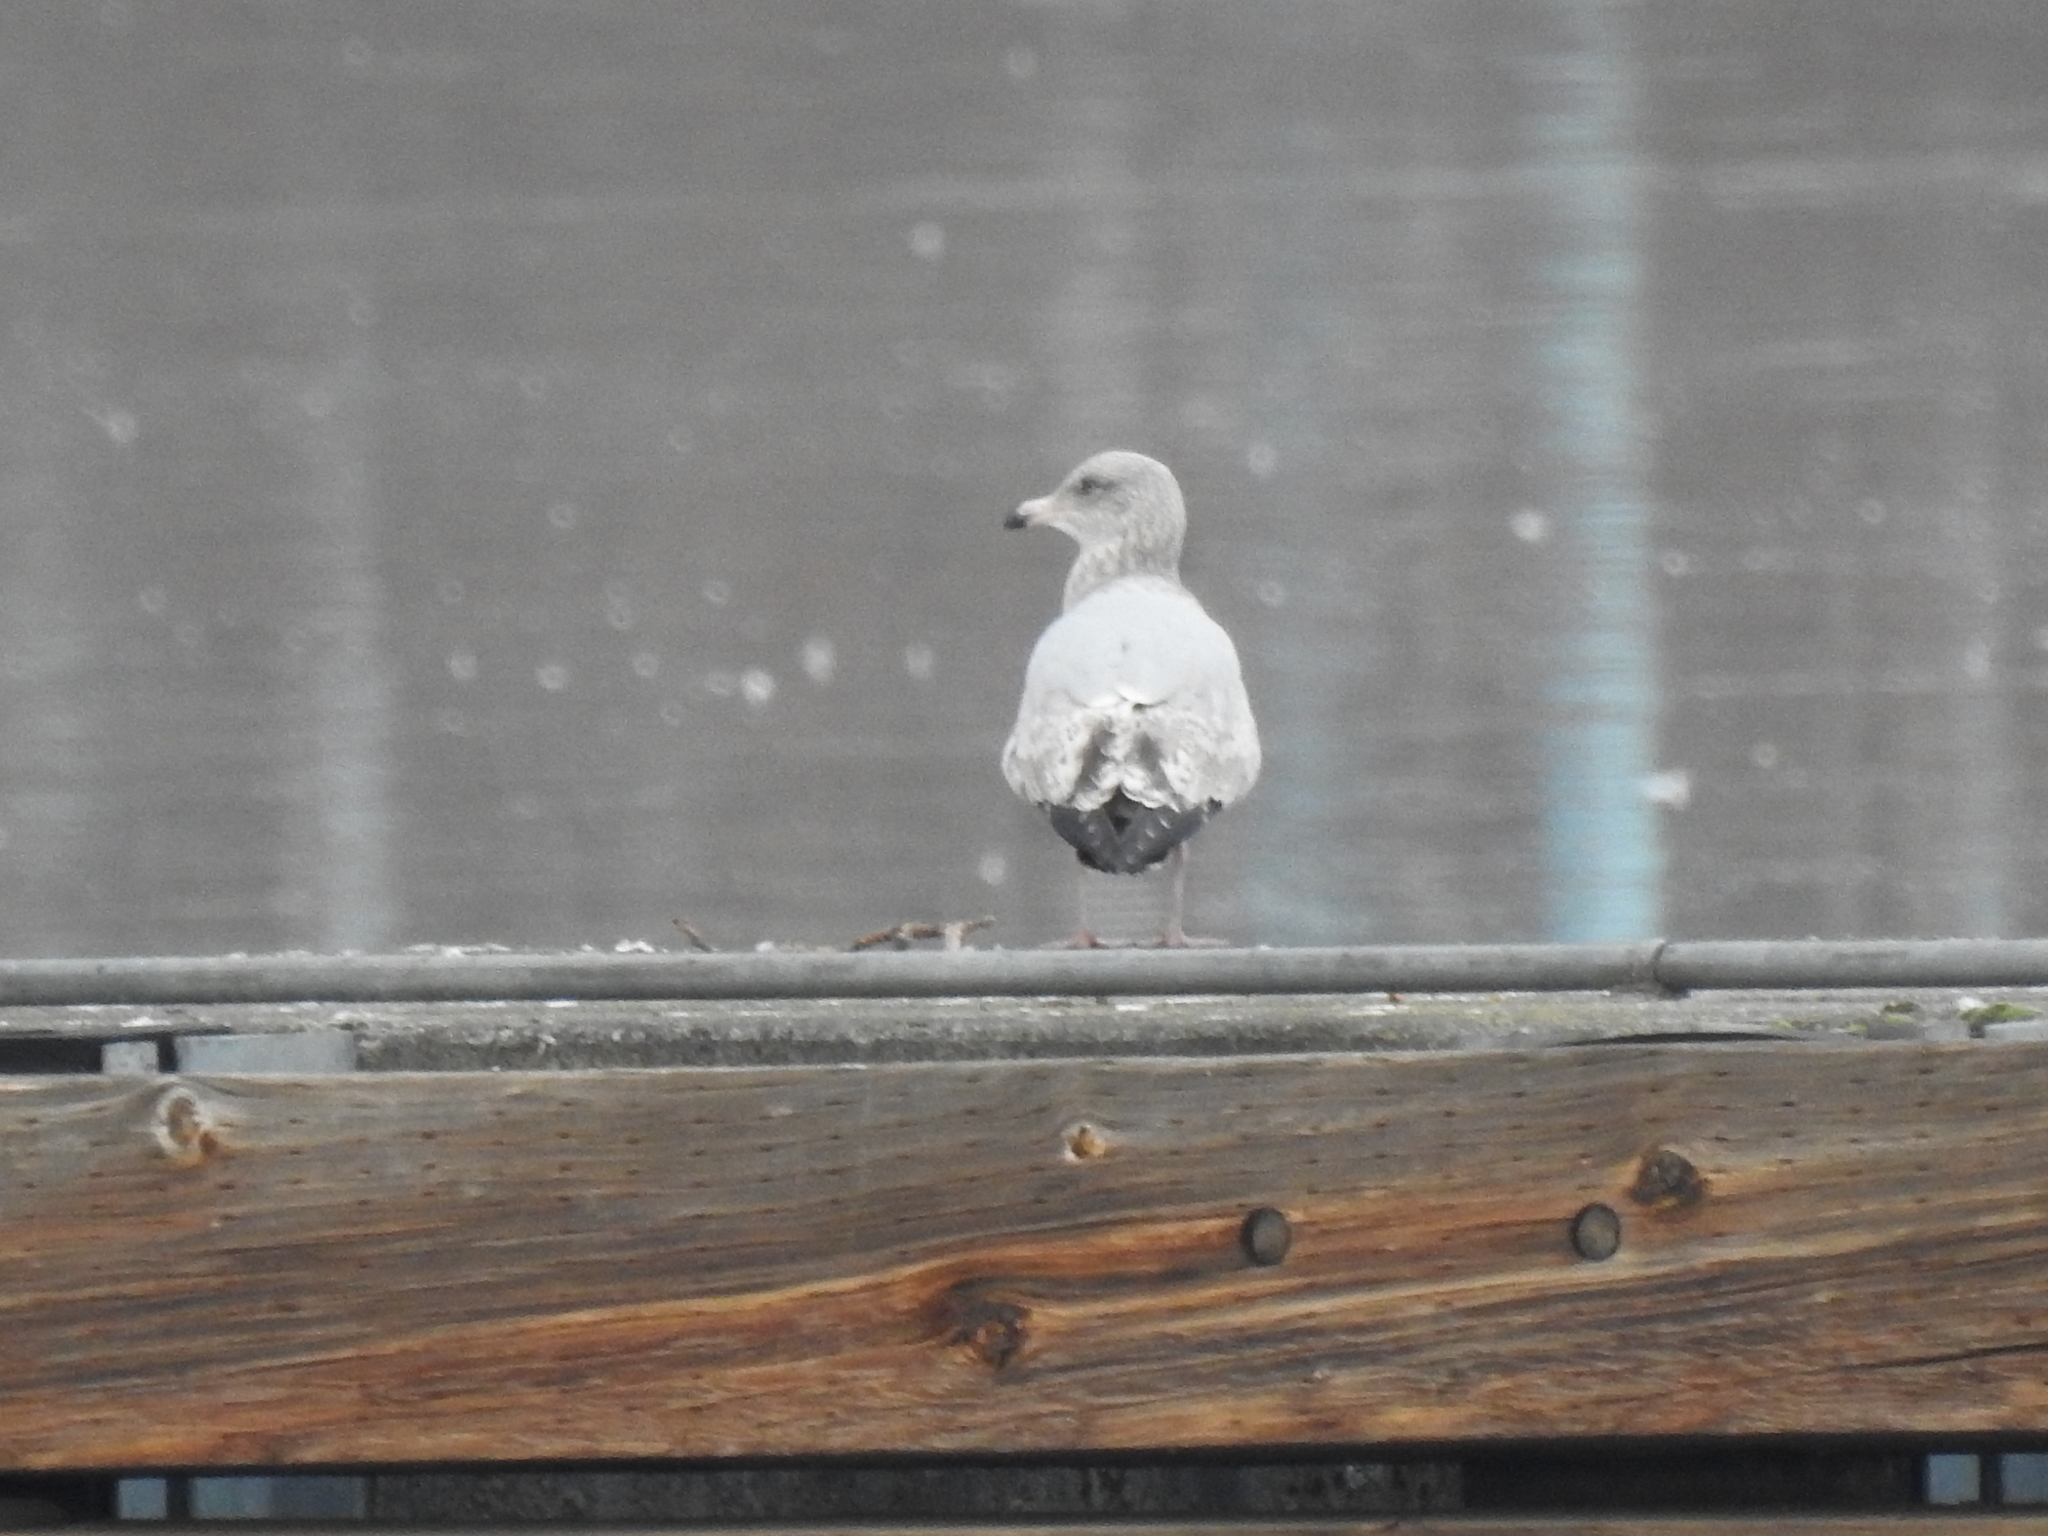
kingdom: Animalia
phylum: Chordata
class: Aves
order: Charadriiformes
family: Laridae
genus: Larus
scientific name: Larus argentatus
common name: Herring gull
